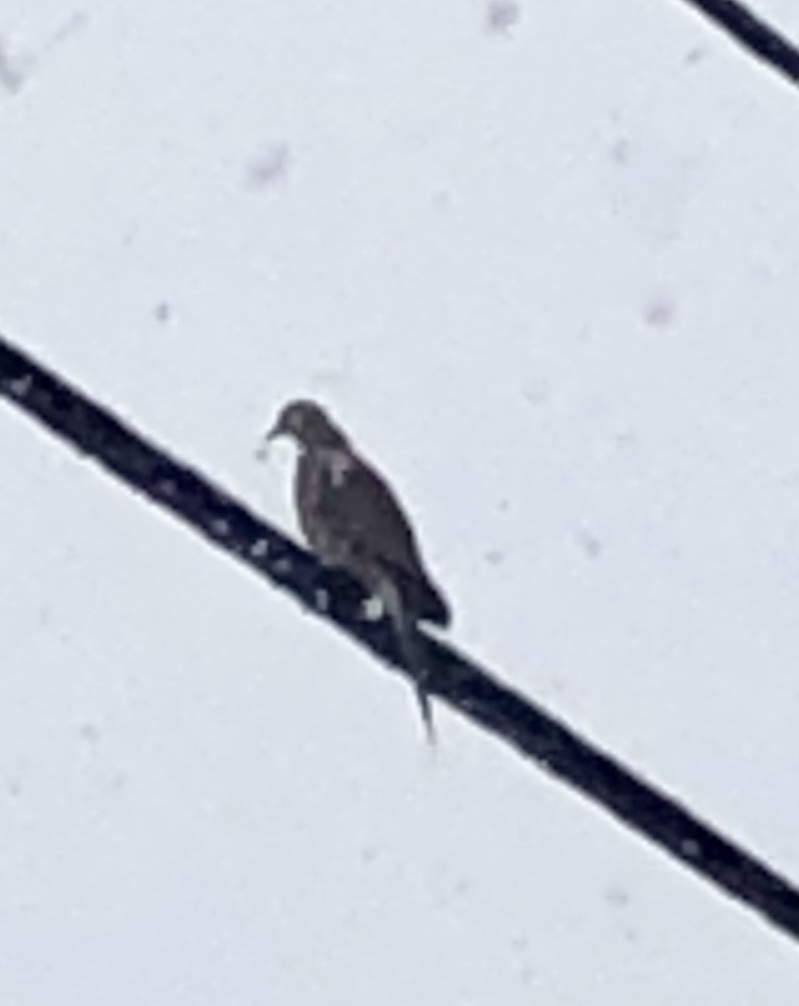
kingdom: Animalia
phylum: Chordata
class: Aves
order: Columbiformes
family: Columbidae
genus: Zenaida
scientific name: Zenaida macroura
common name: Mourning dove
